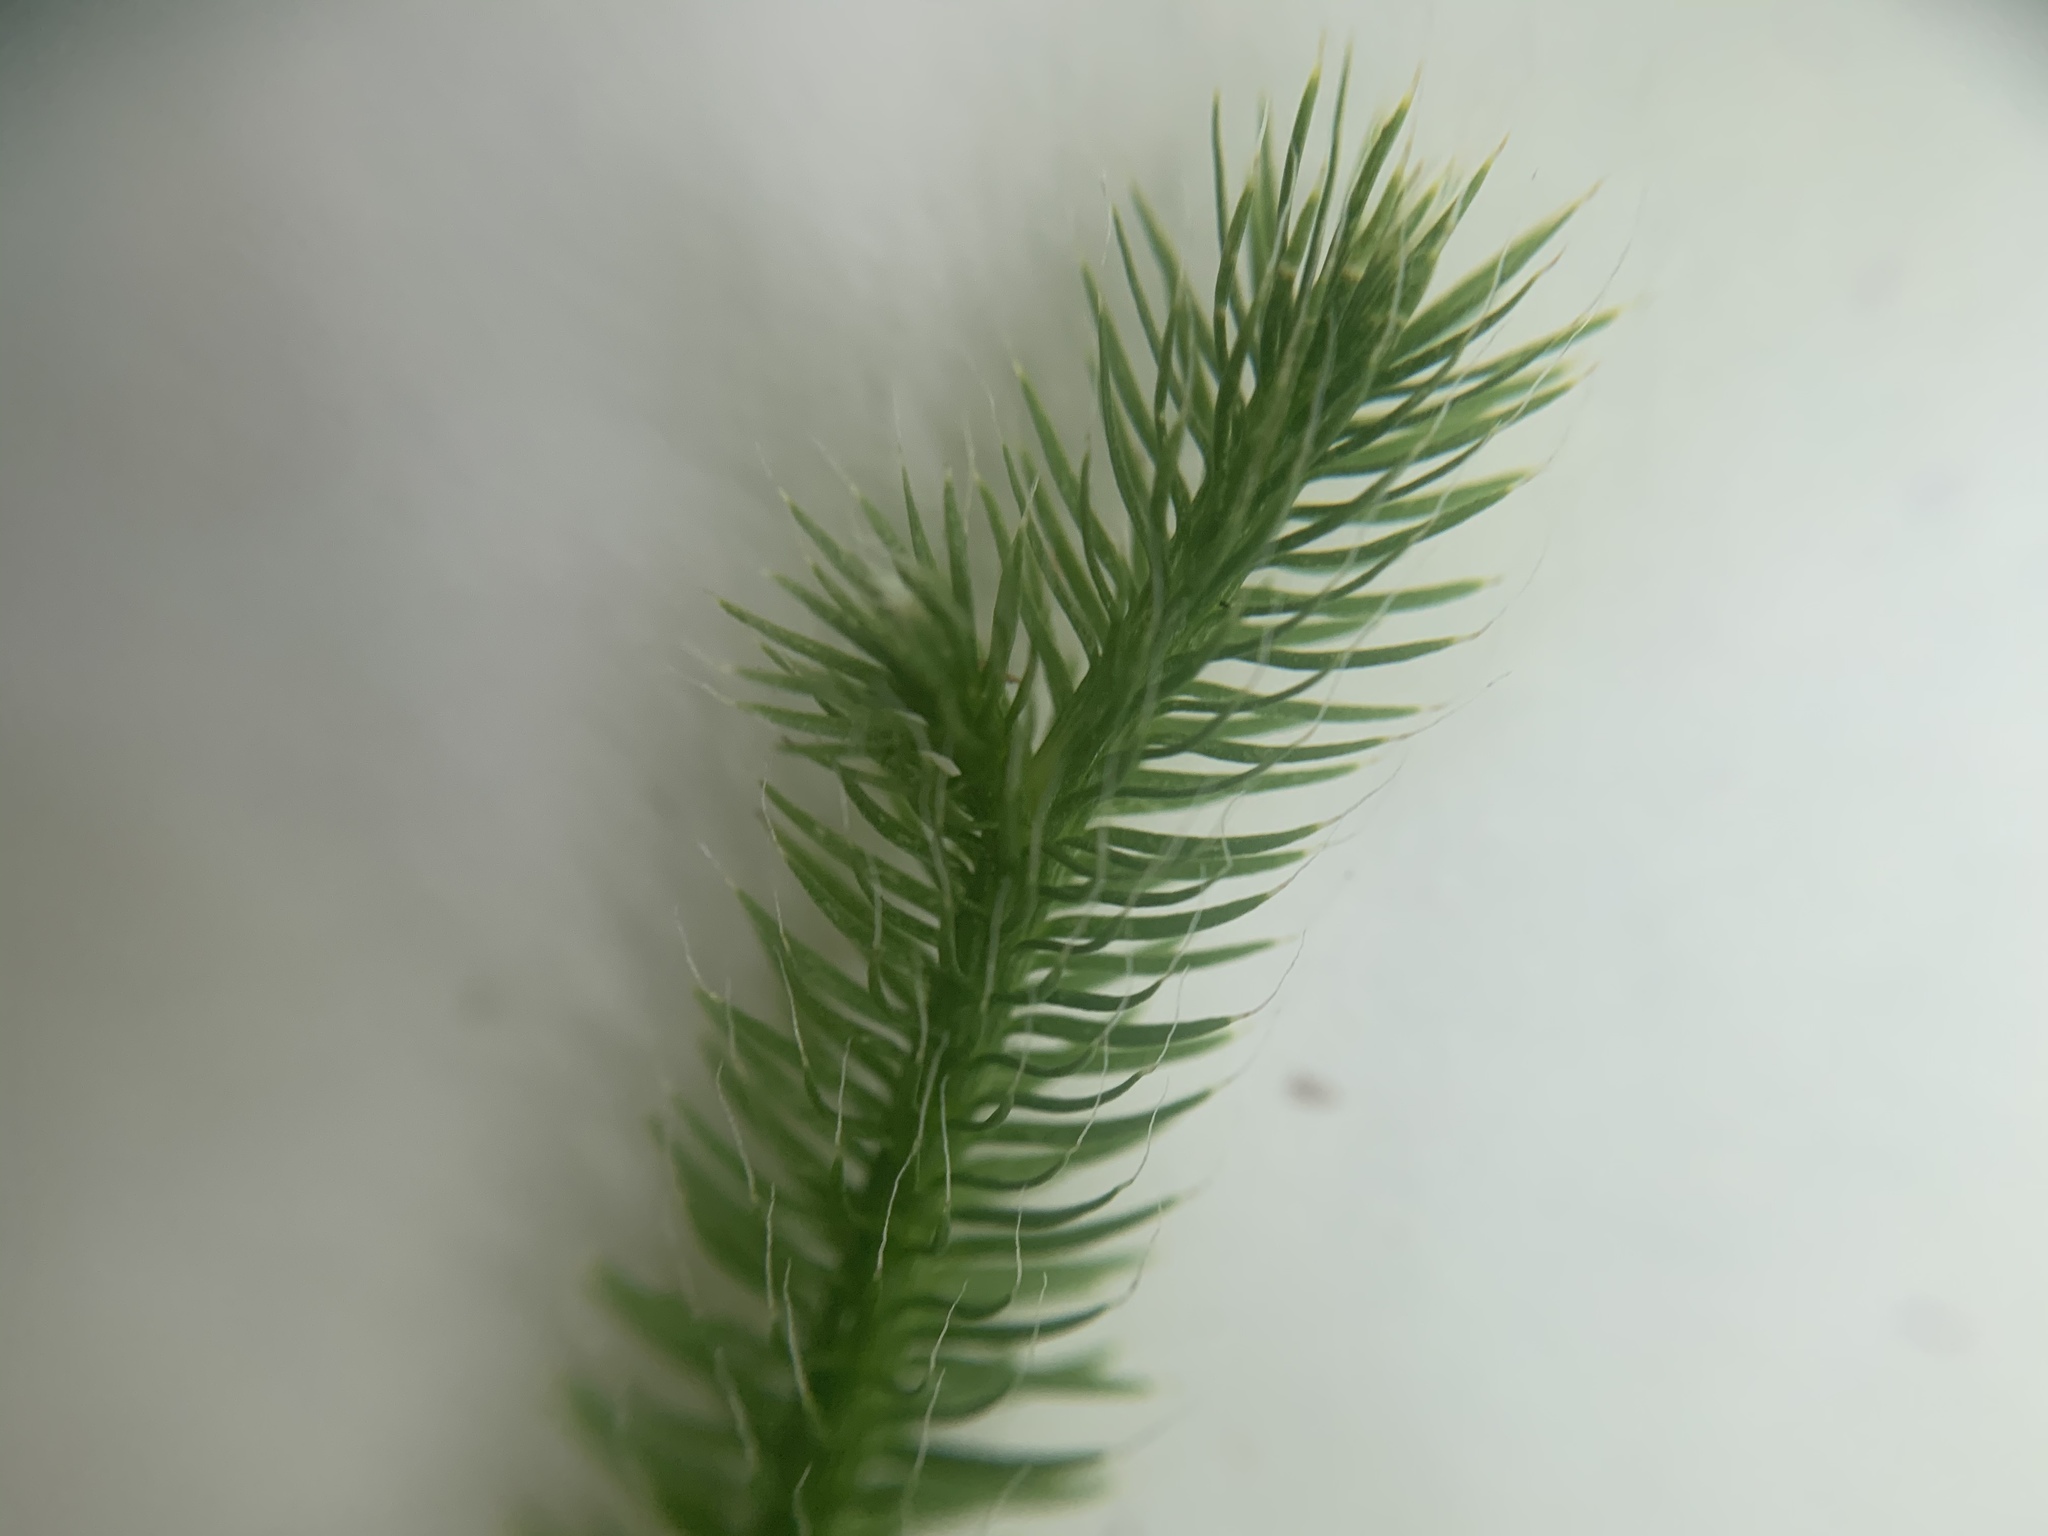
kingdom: Plantae
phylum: Tracheophyta
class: Lycopodiopsida
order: Lycopodiales
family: Lycopodiaceae
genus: Lycopodium
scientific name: Lycopodium clavatum
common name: Stag's-horn clubmoss
